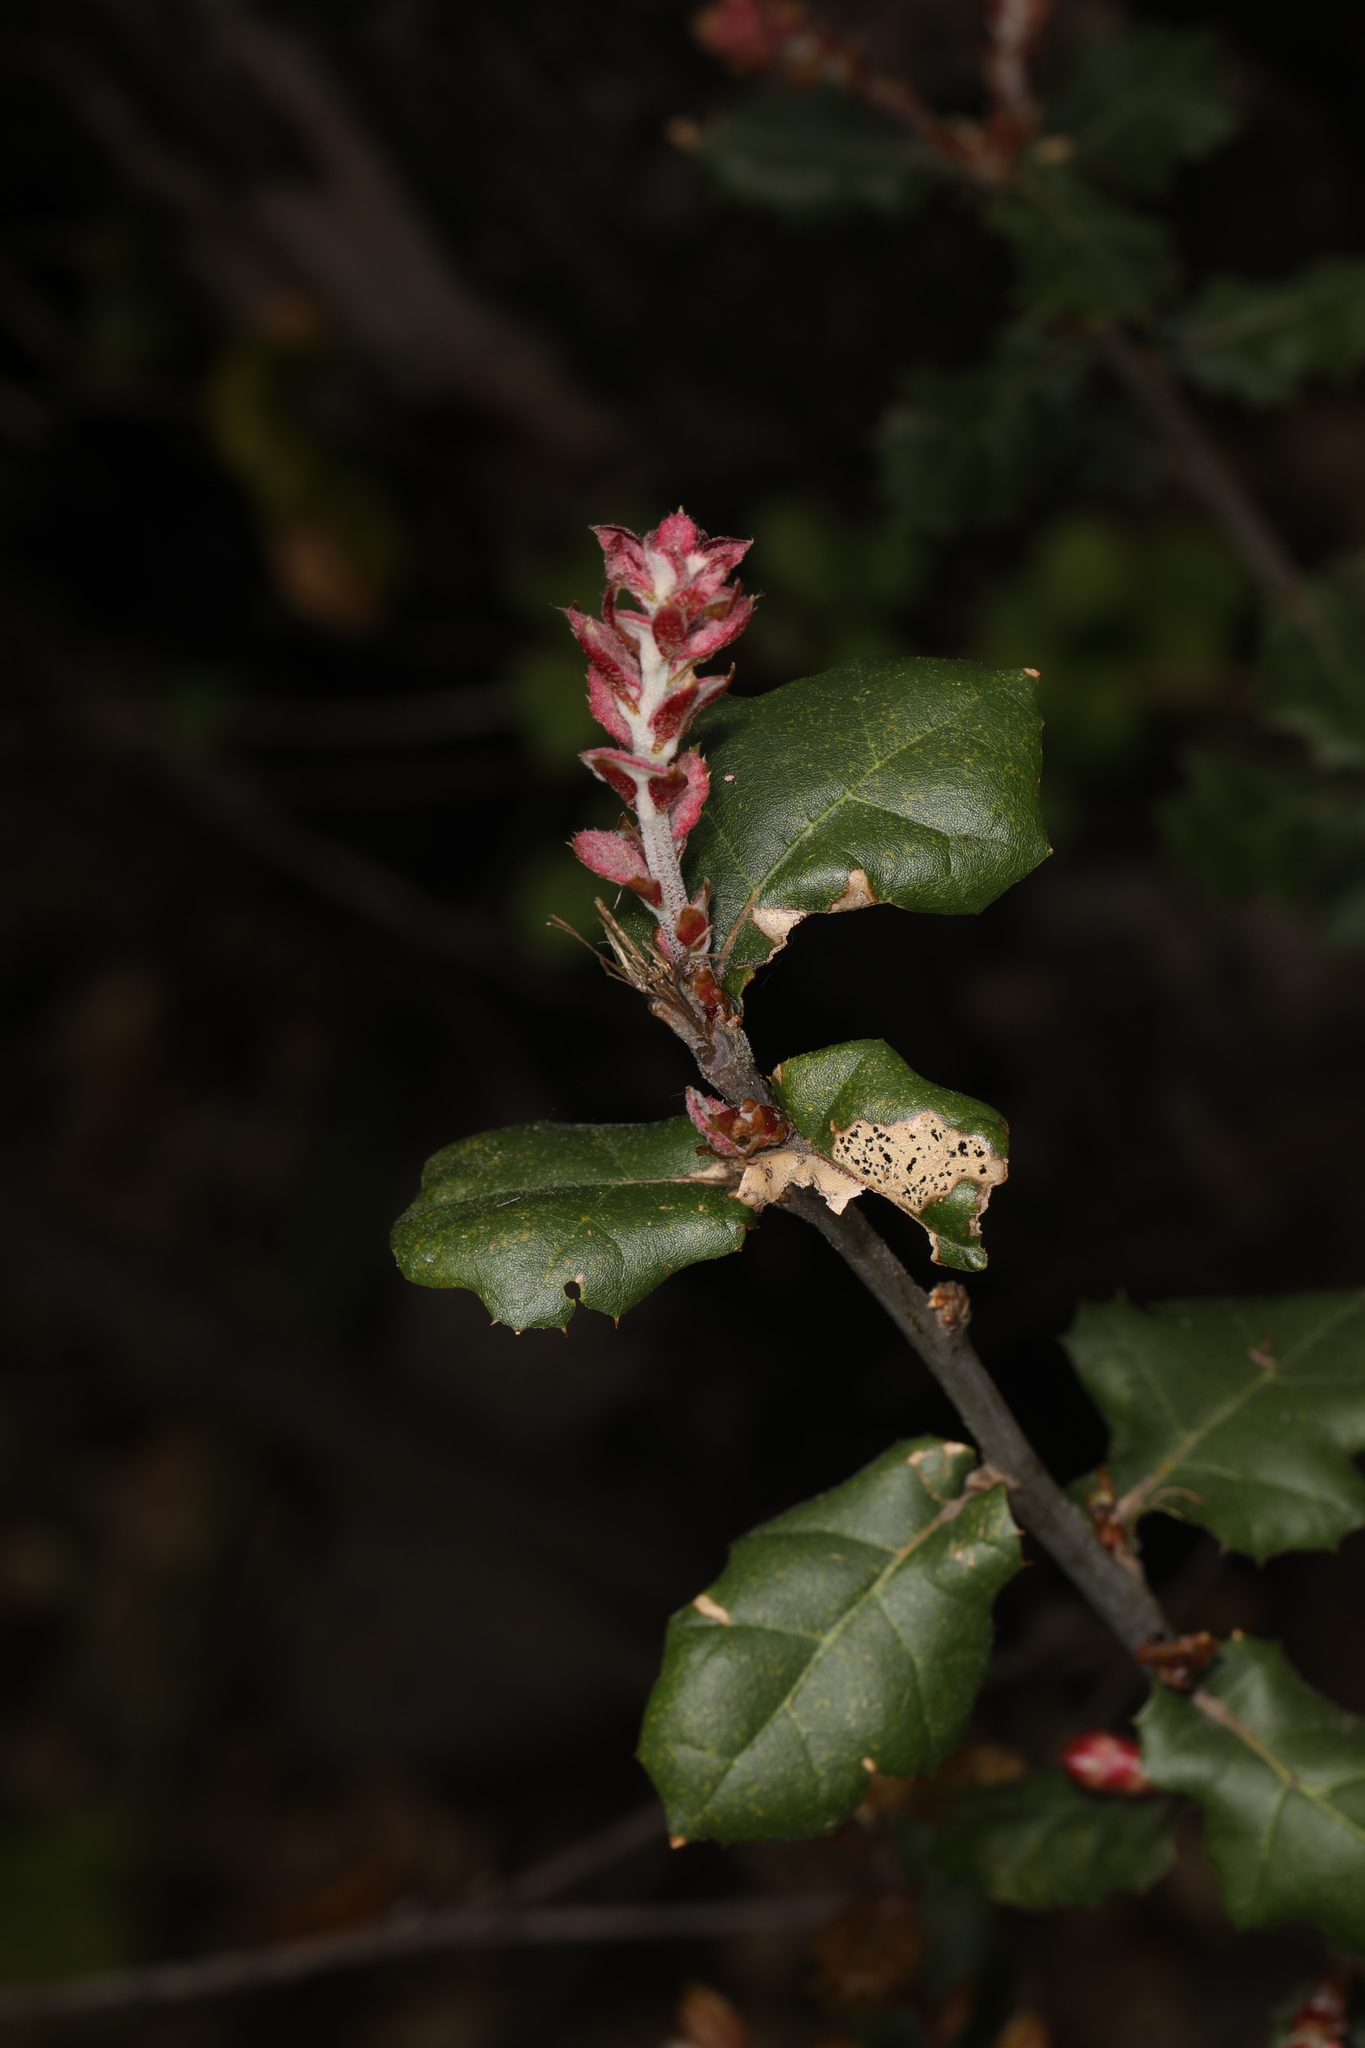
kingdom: Plantae
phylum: Tracheophyta
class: Magnoliopsida
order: Fagales
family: Fagaceae
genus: Quercus
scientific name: Quercus agrifolia
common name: California live oak
